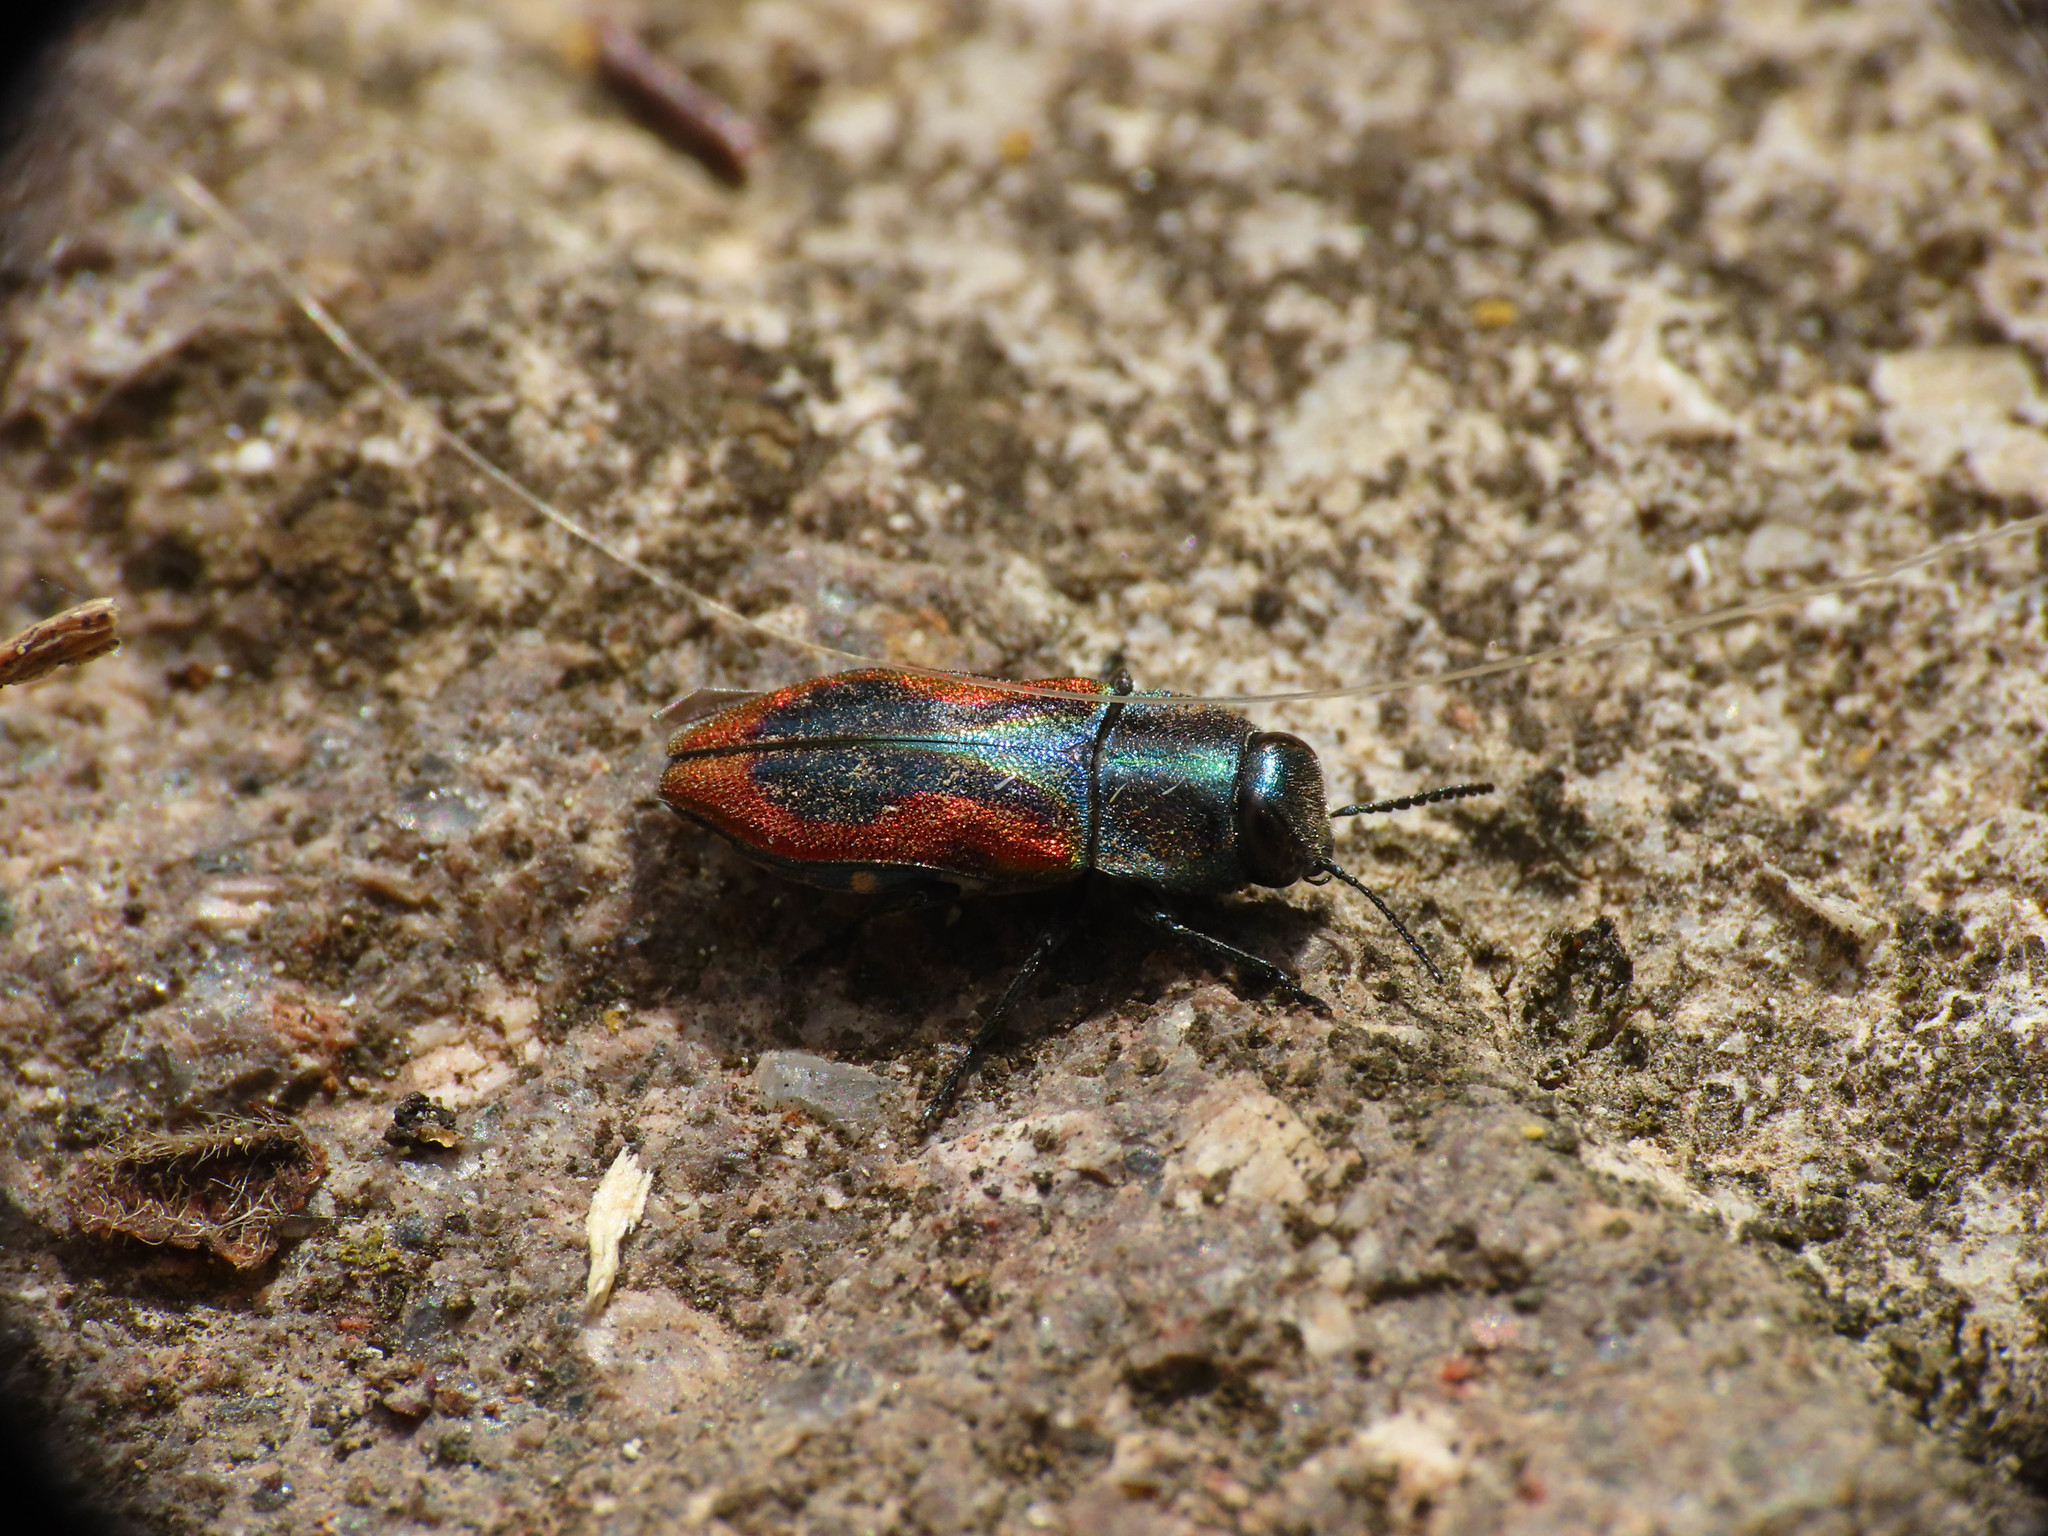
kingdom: Animalia
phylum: Arthropoda
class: Insecta
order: Coleoptera
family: Buprestidae
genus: Anthaxia
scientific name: Anthaxia lucens
